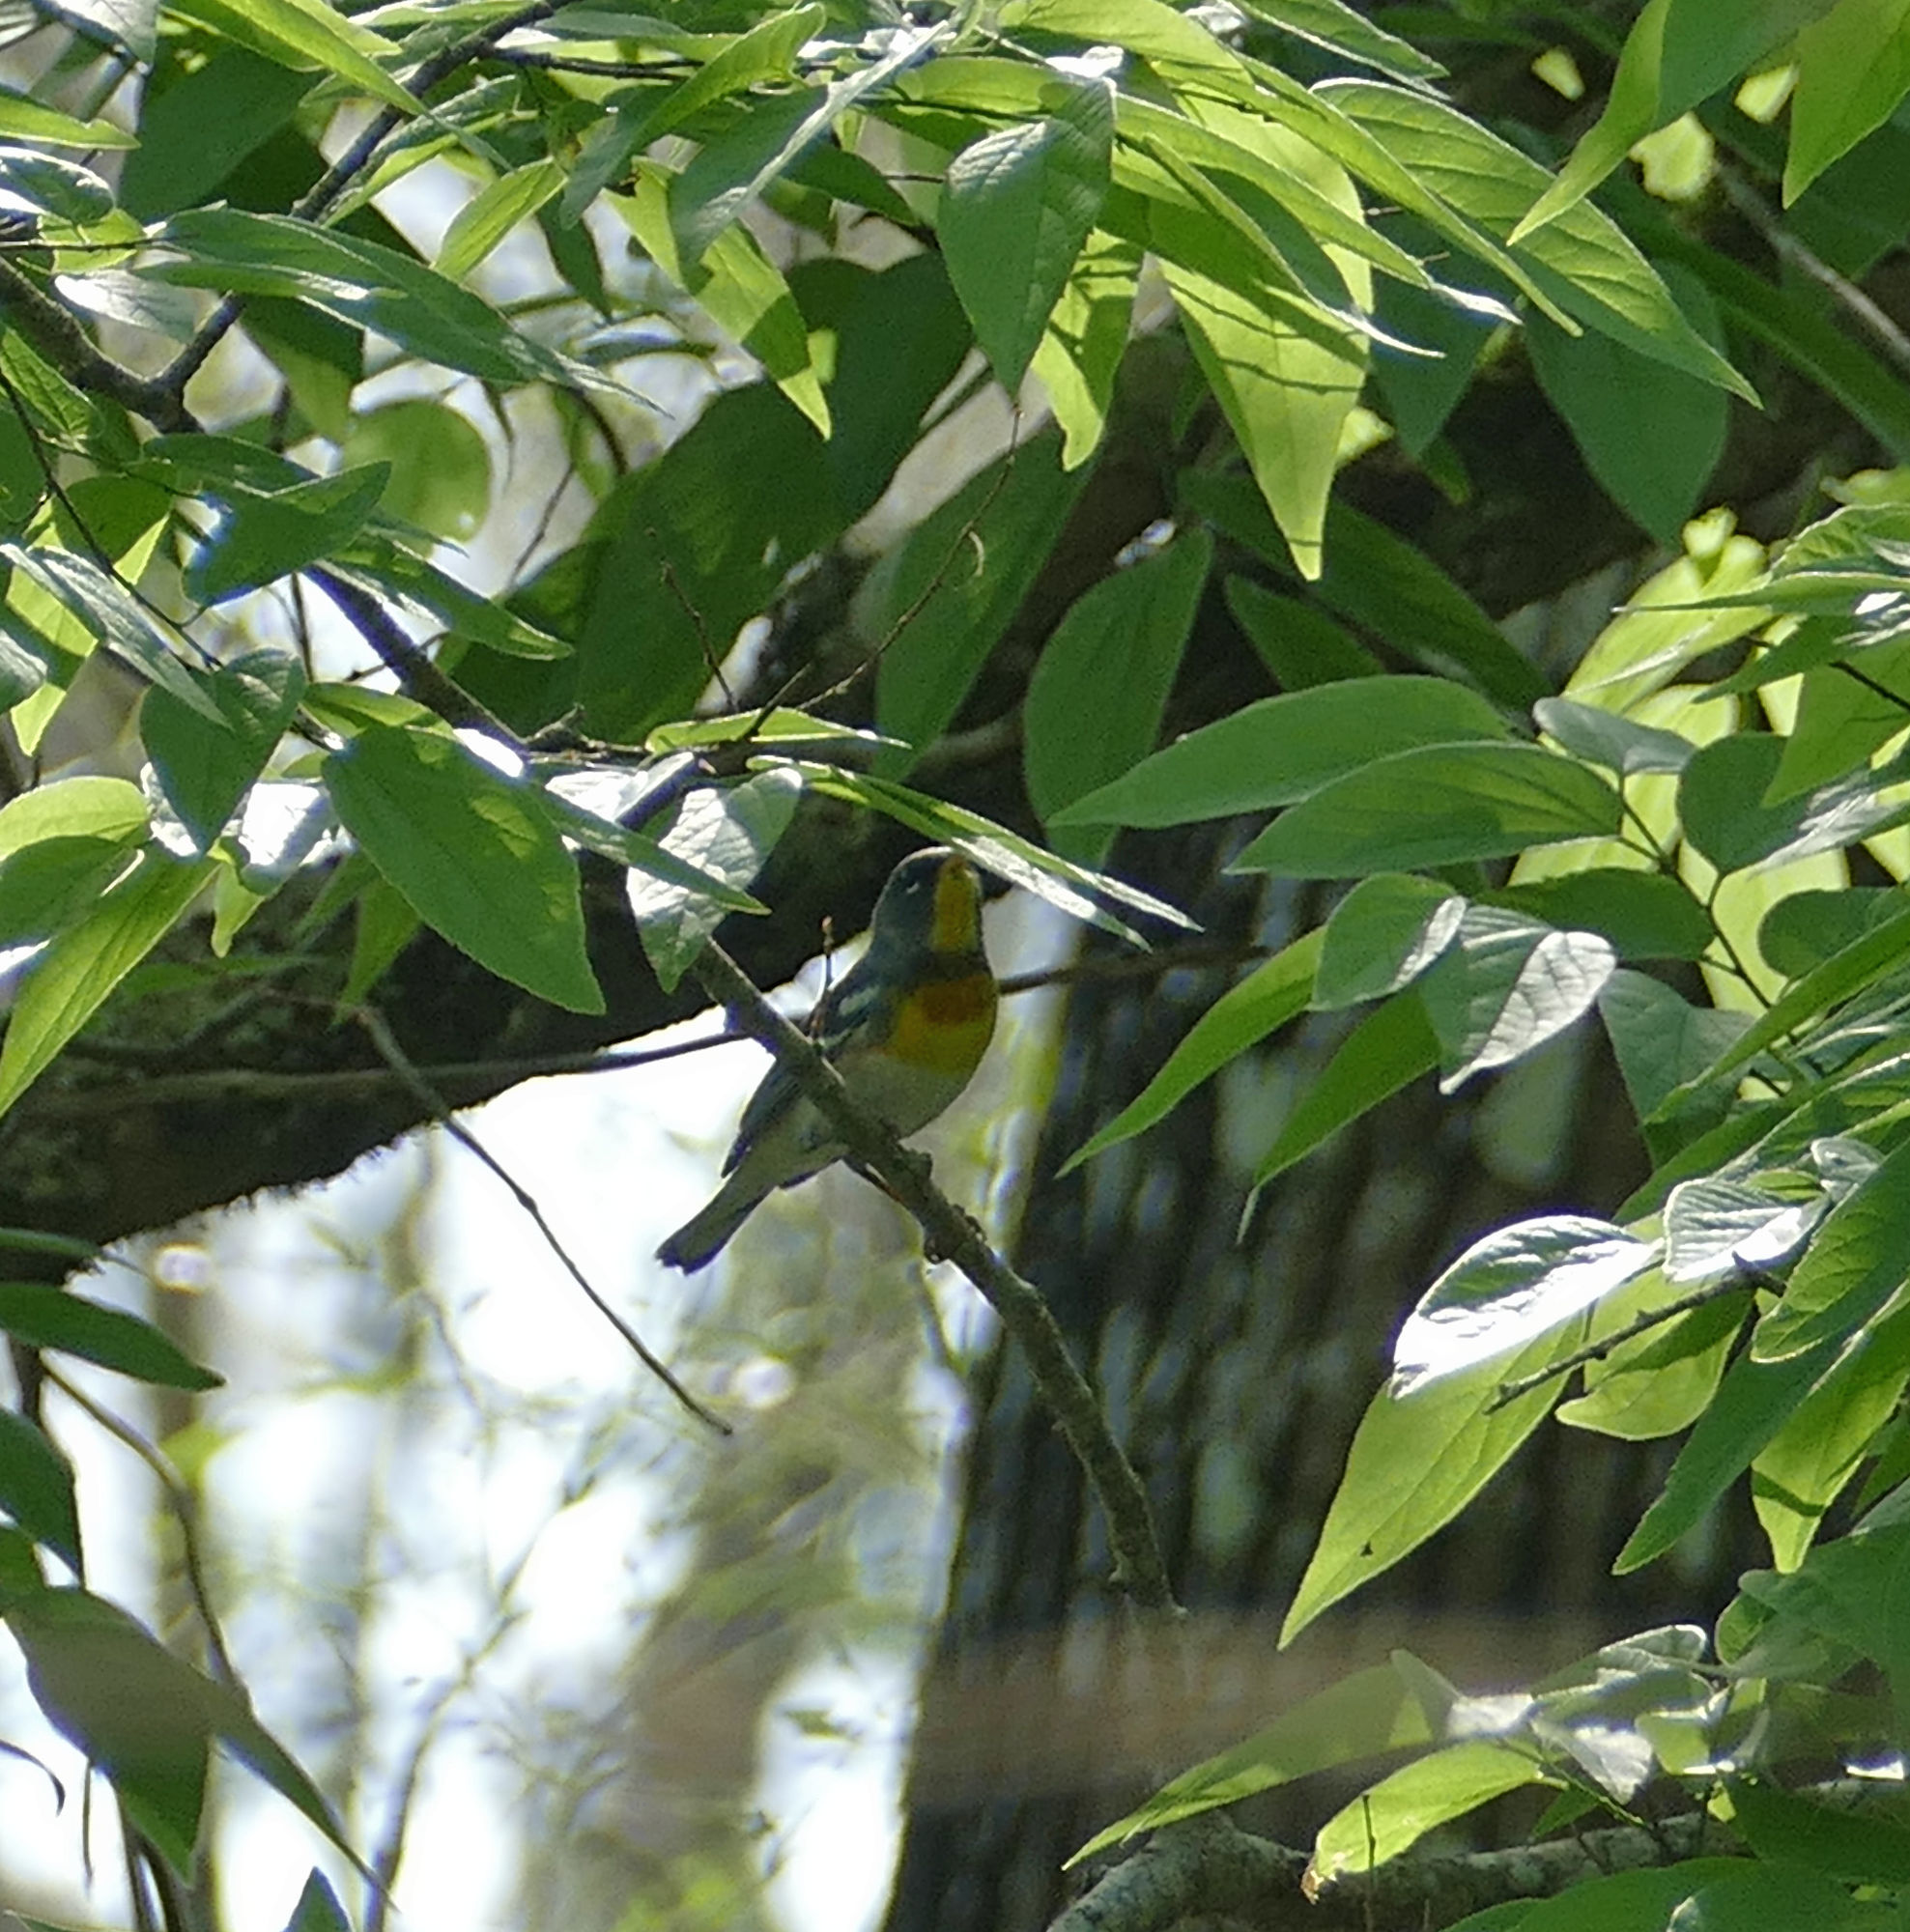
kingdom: Animalia
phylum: Chordata
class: Aves
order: Passeriformes
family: Parulidae
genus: Setophaga
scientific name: Setophaga americana
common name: Northern parula
